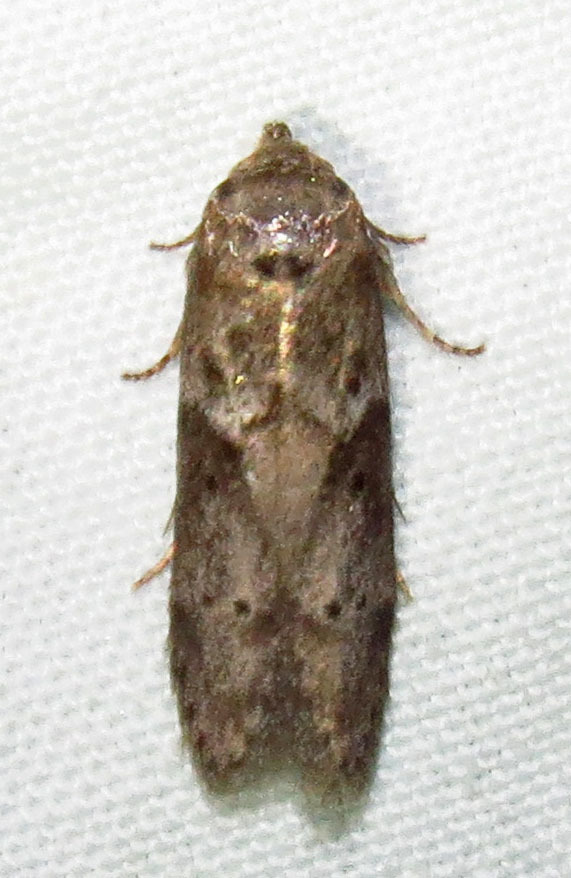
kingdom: Animalia
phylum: Arthropoda
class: Insecta
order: Lepidoptera
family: Blastobasidae
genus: Blastobasis
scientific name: Blastobasis glandulella
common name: Acorn moth
